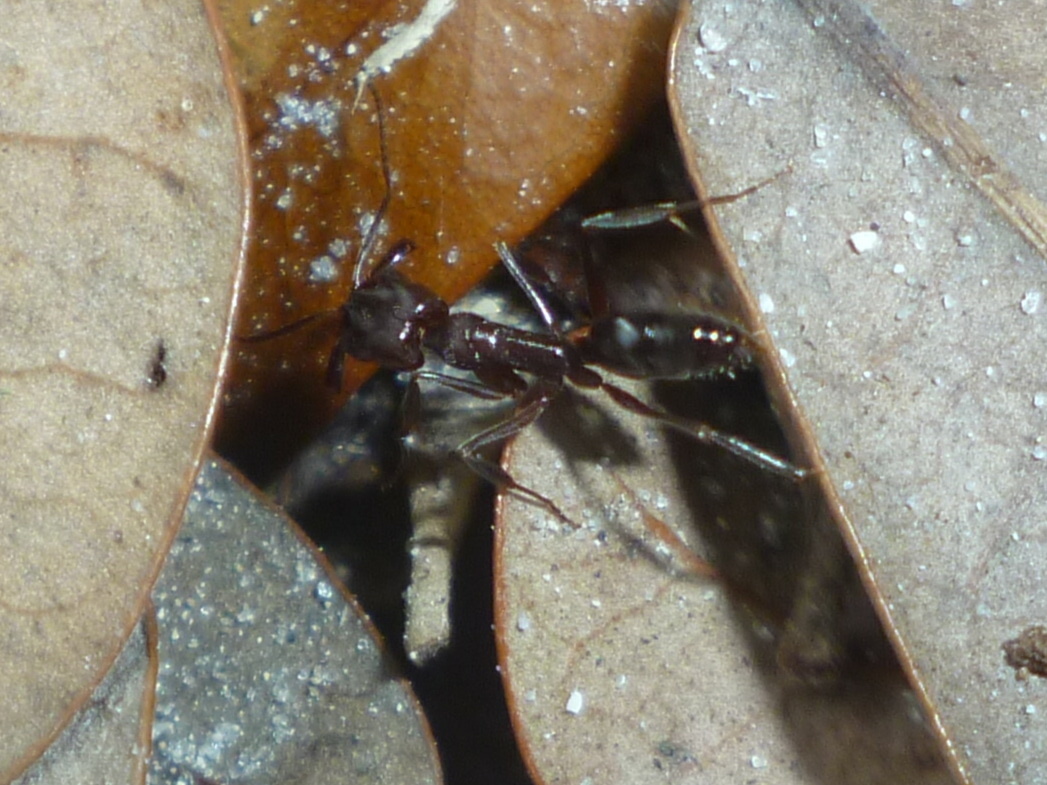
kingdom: Animalia
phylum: Arthropoda
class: Insecta
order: Hymenoptera
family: Formicidae
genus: Odontomachus
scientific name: Odontomachus brunneus
